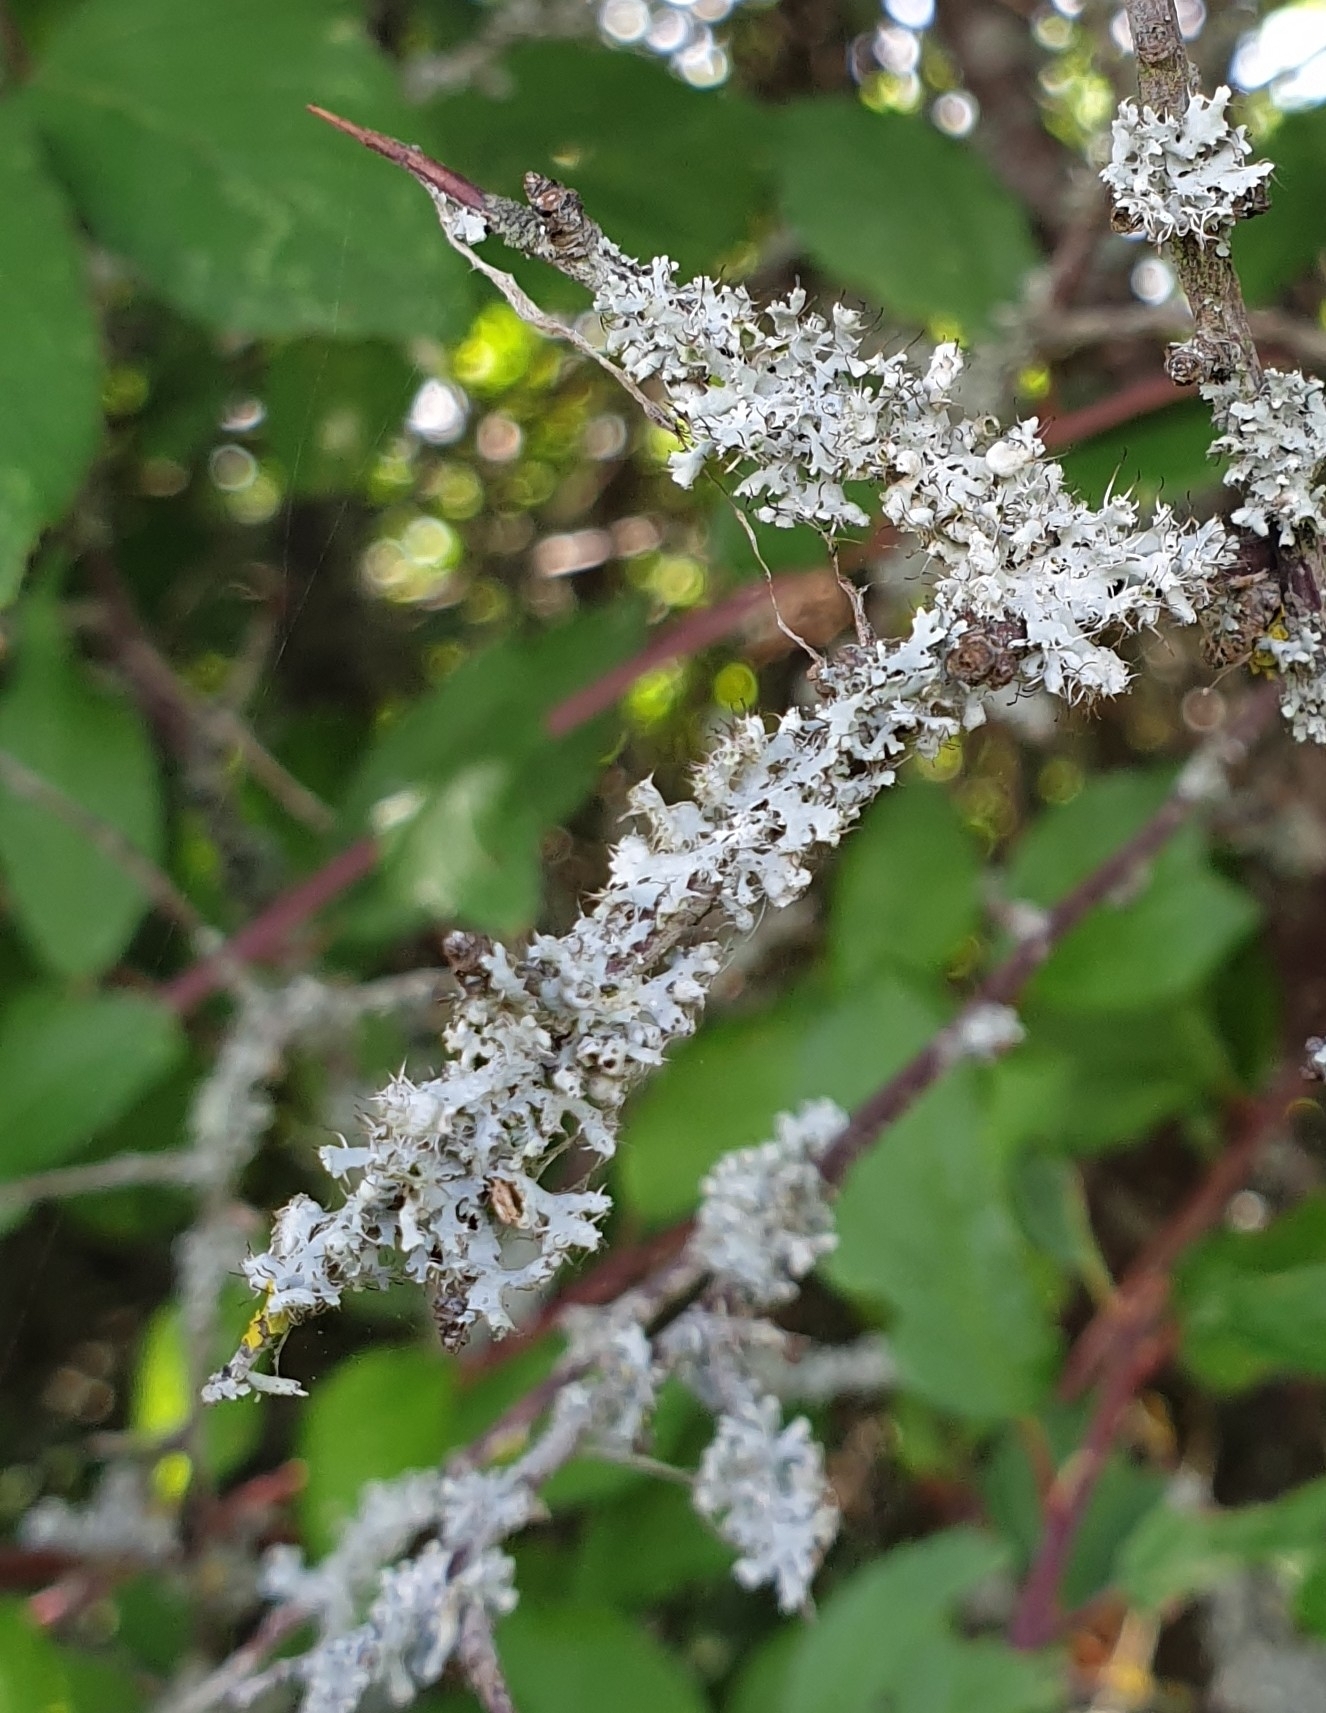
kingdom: Fungi
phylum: Ascomycota
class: Lecanoromycetes
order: Caliciales
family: Physciaceae
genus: Physcia
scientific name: Physcia adscendens
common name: Hooded rosette lichen
